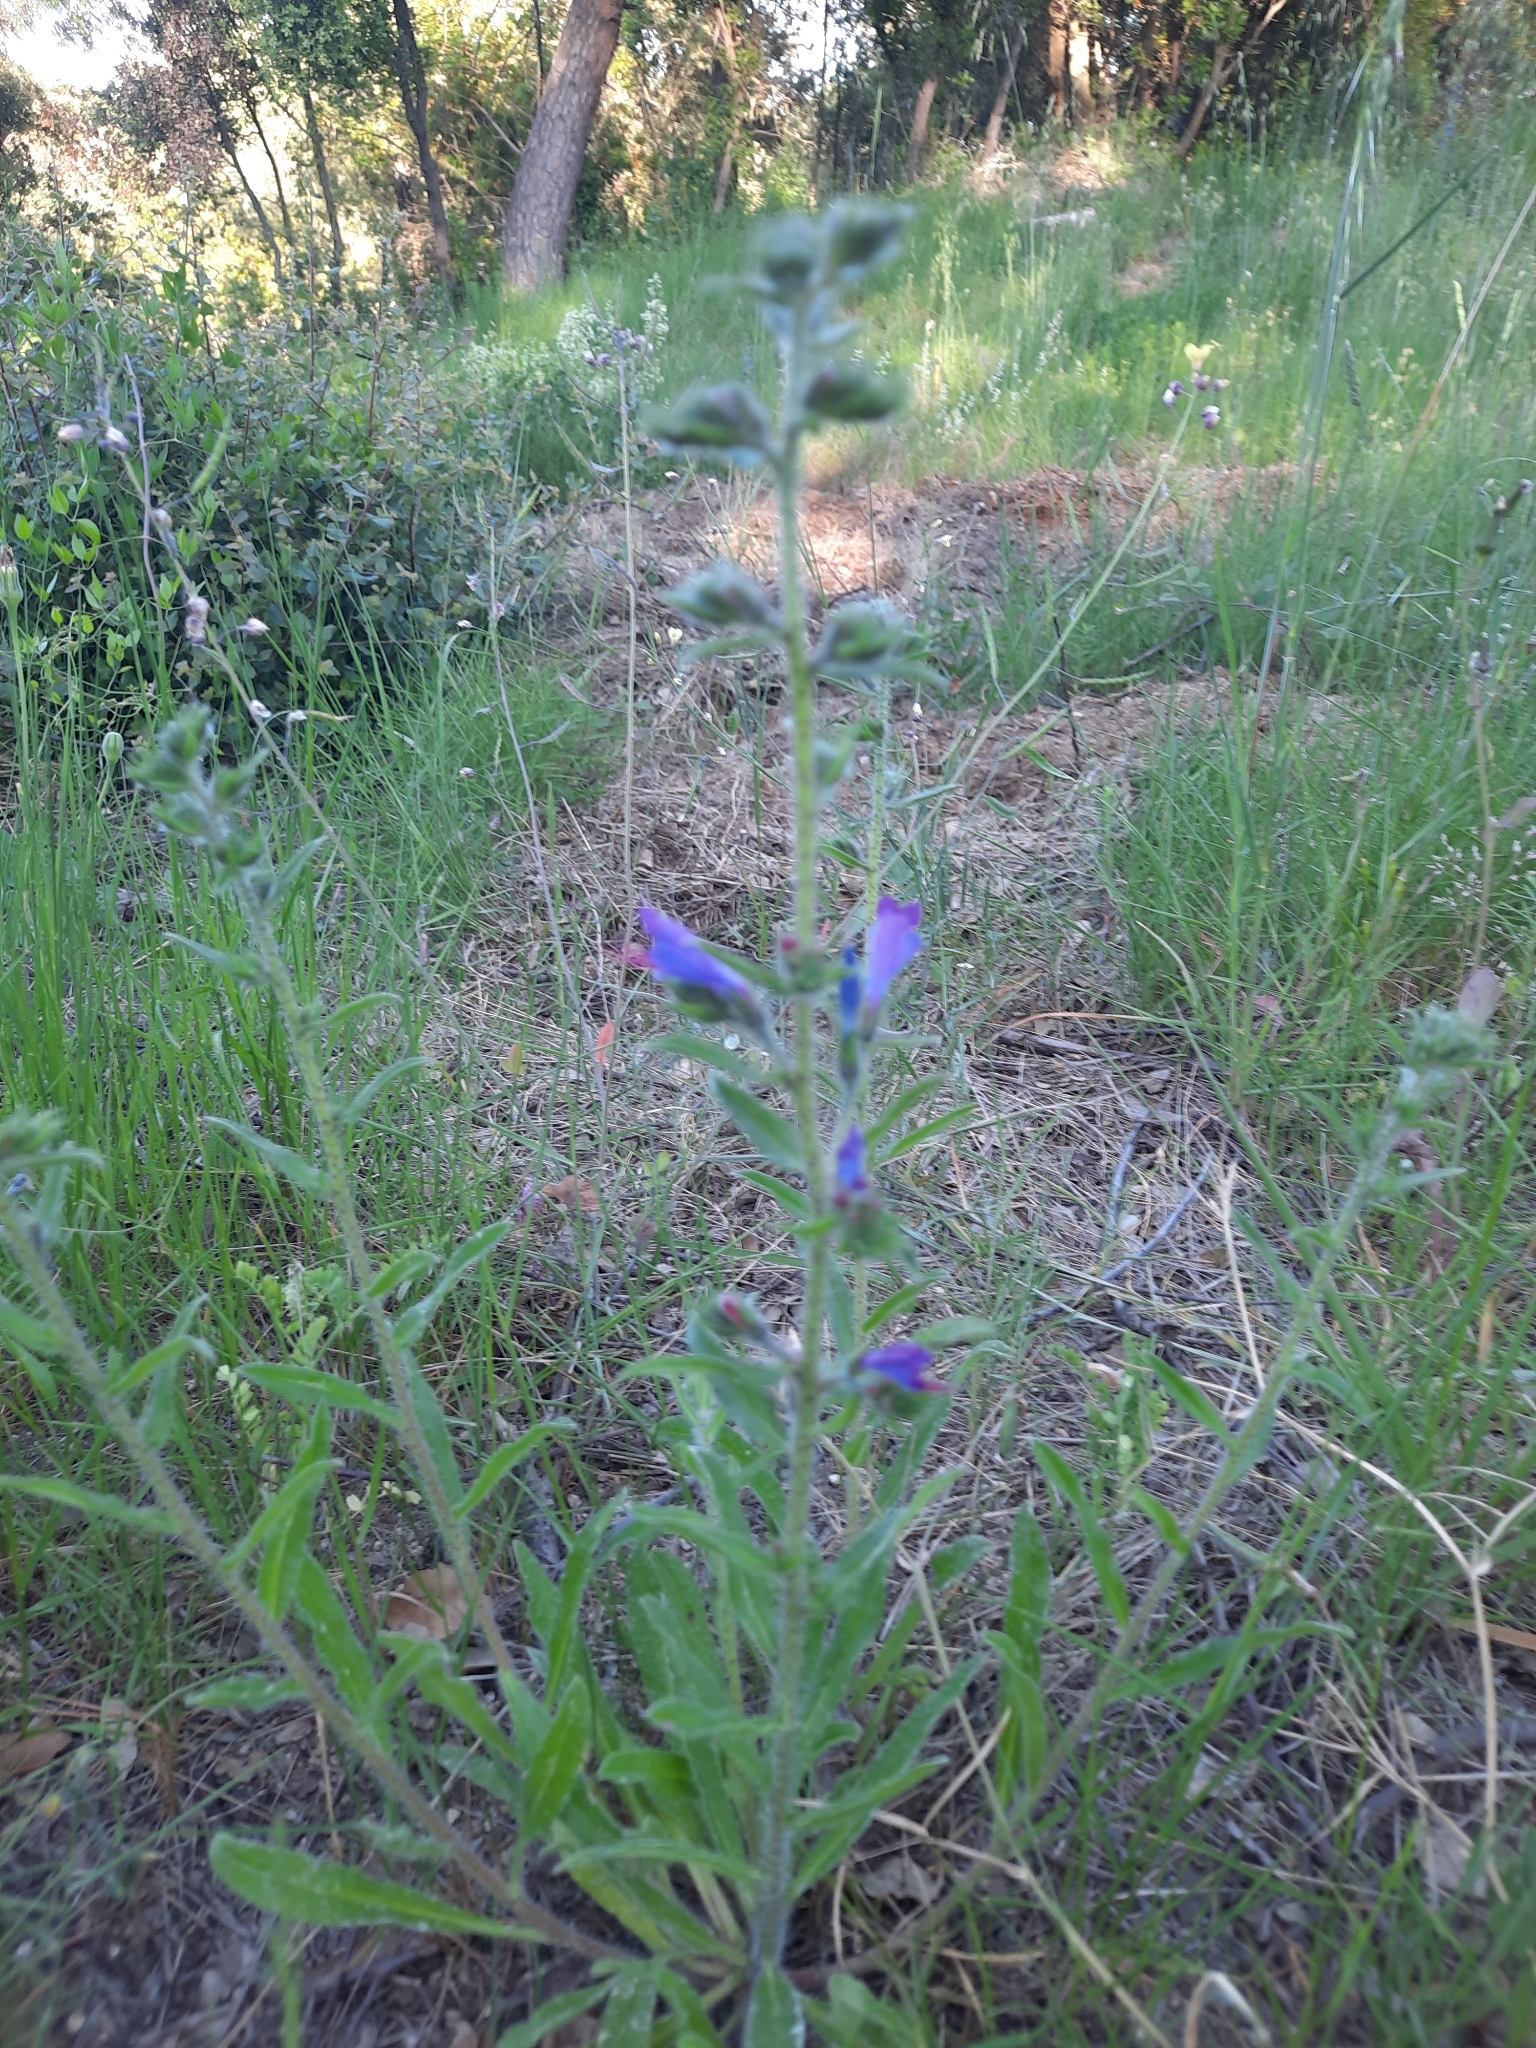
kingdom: Plantae
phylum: Tracheophyta
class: Magnoliopsida
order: Boraginales
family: Boraginaceae
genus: Echium
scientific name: Echium vulgare
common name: Common viper's bugloss
